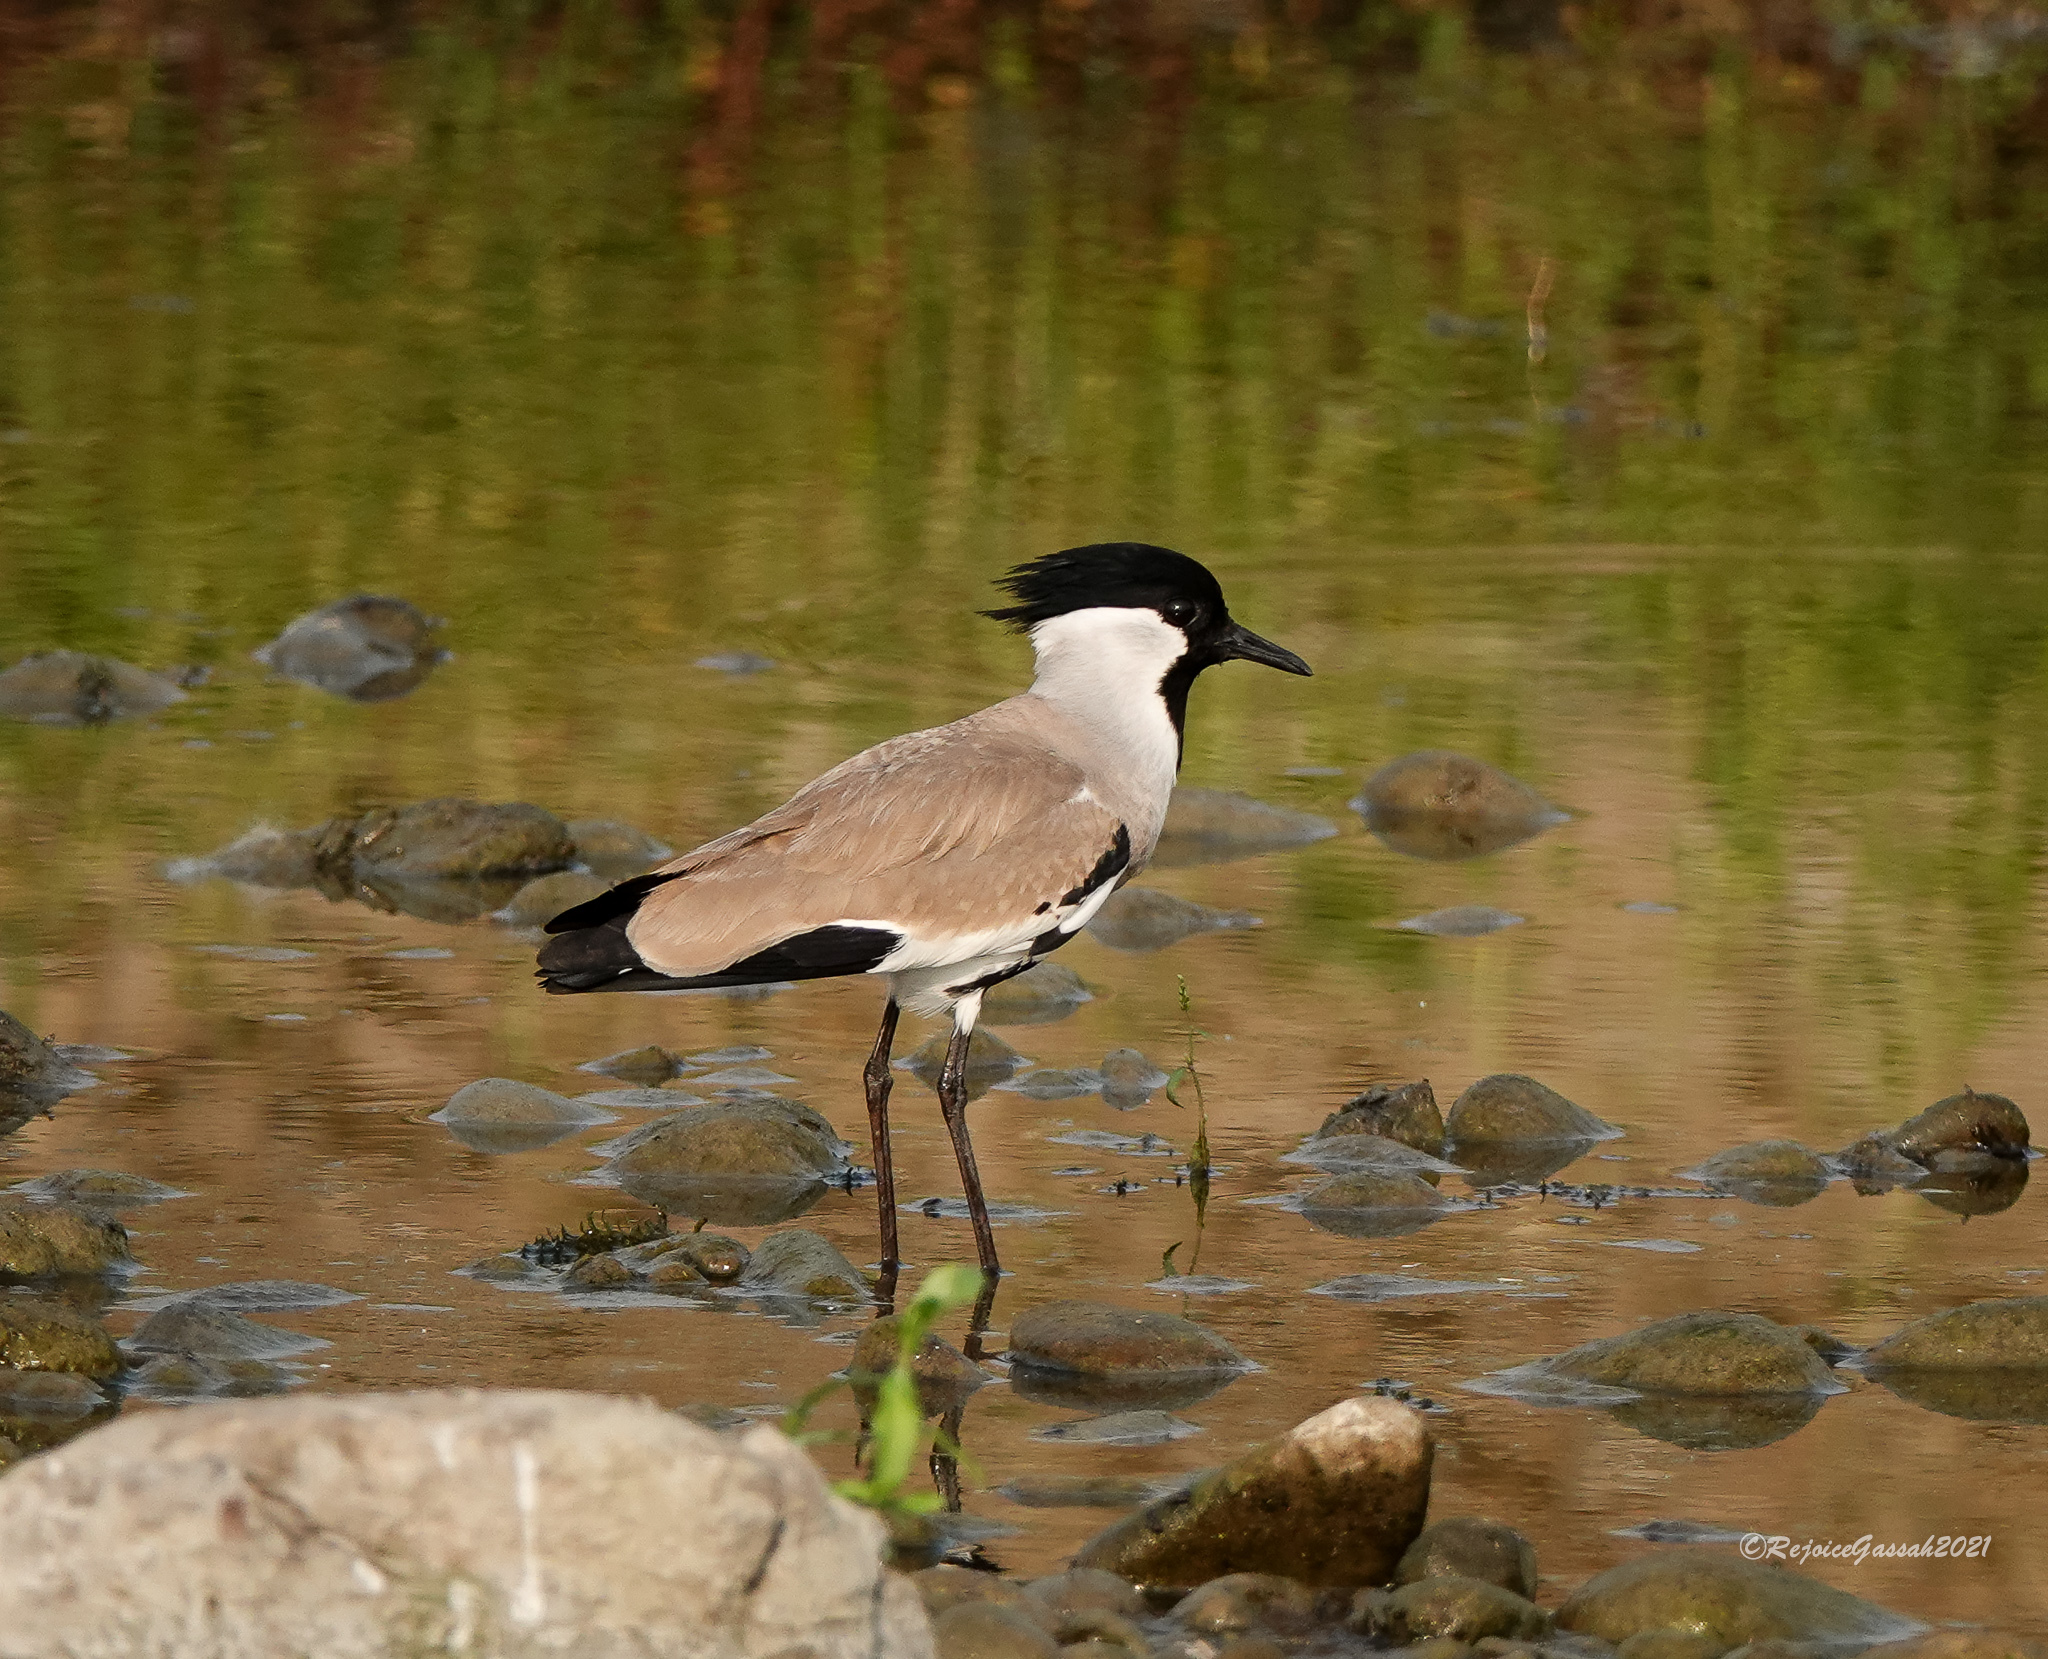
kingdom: Animalia
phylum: Chordata
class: Aves
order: Charadriiformes
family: Charadriidae
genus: Vanellus
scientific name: Vanellus duvaucelii
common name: River lapwing
